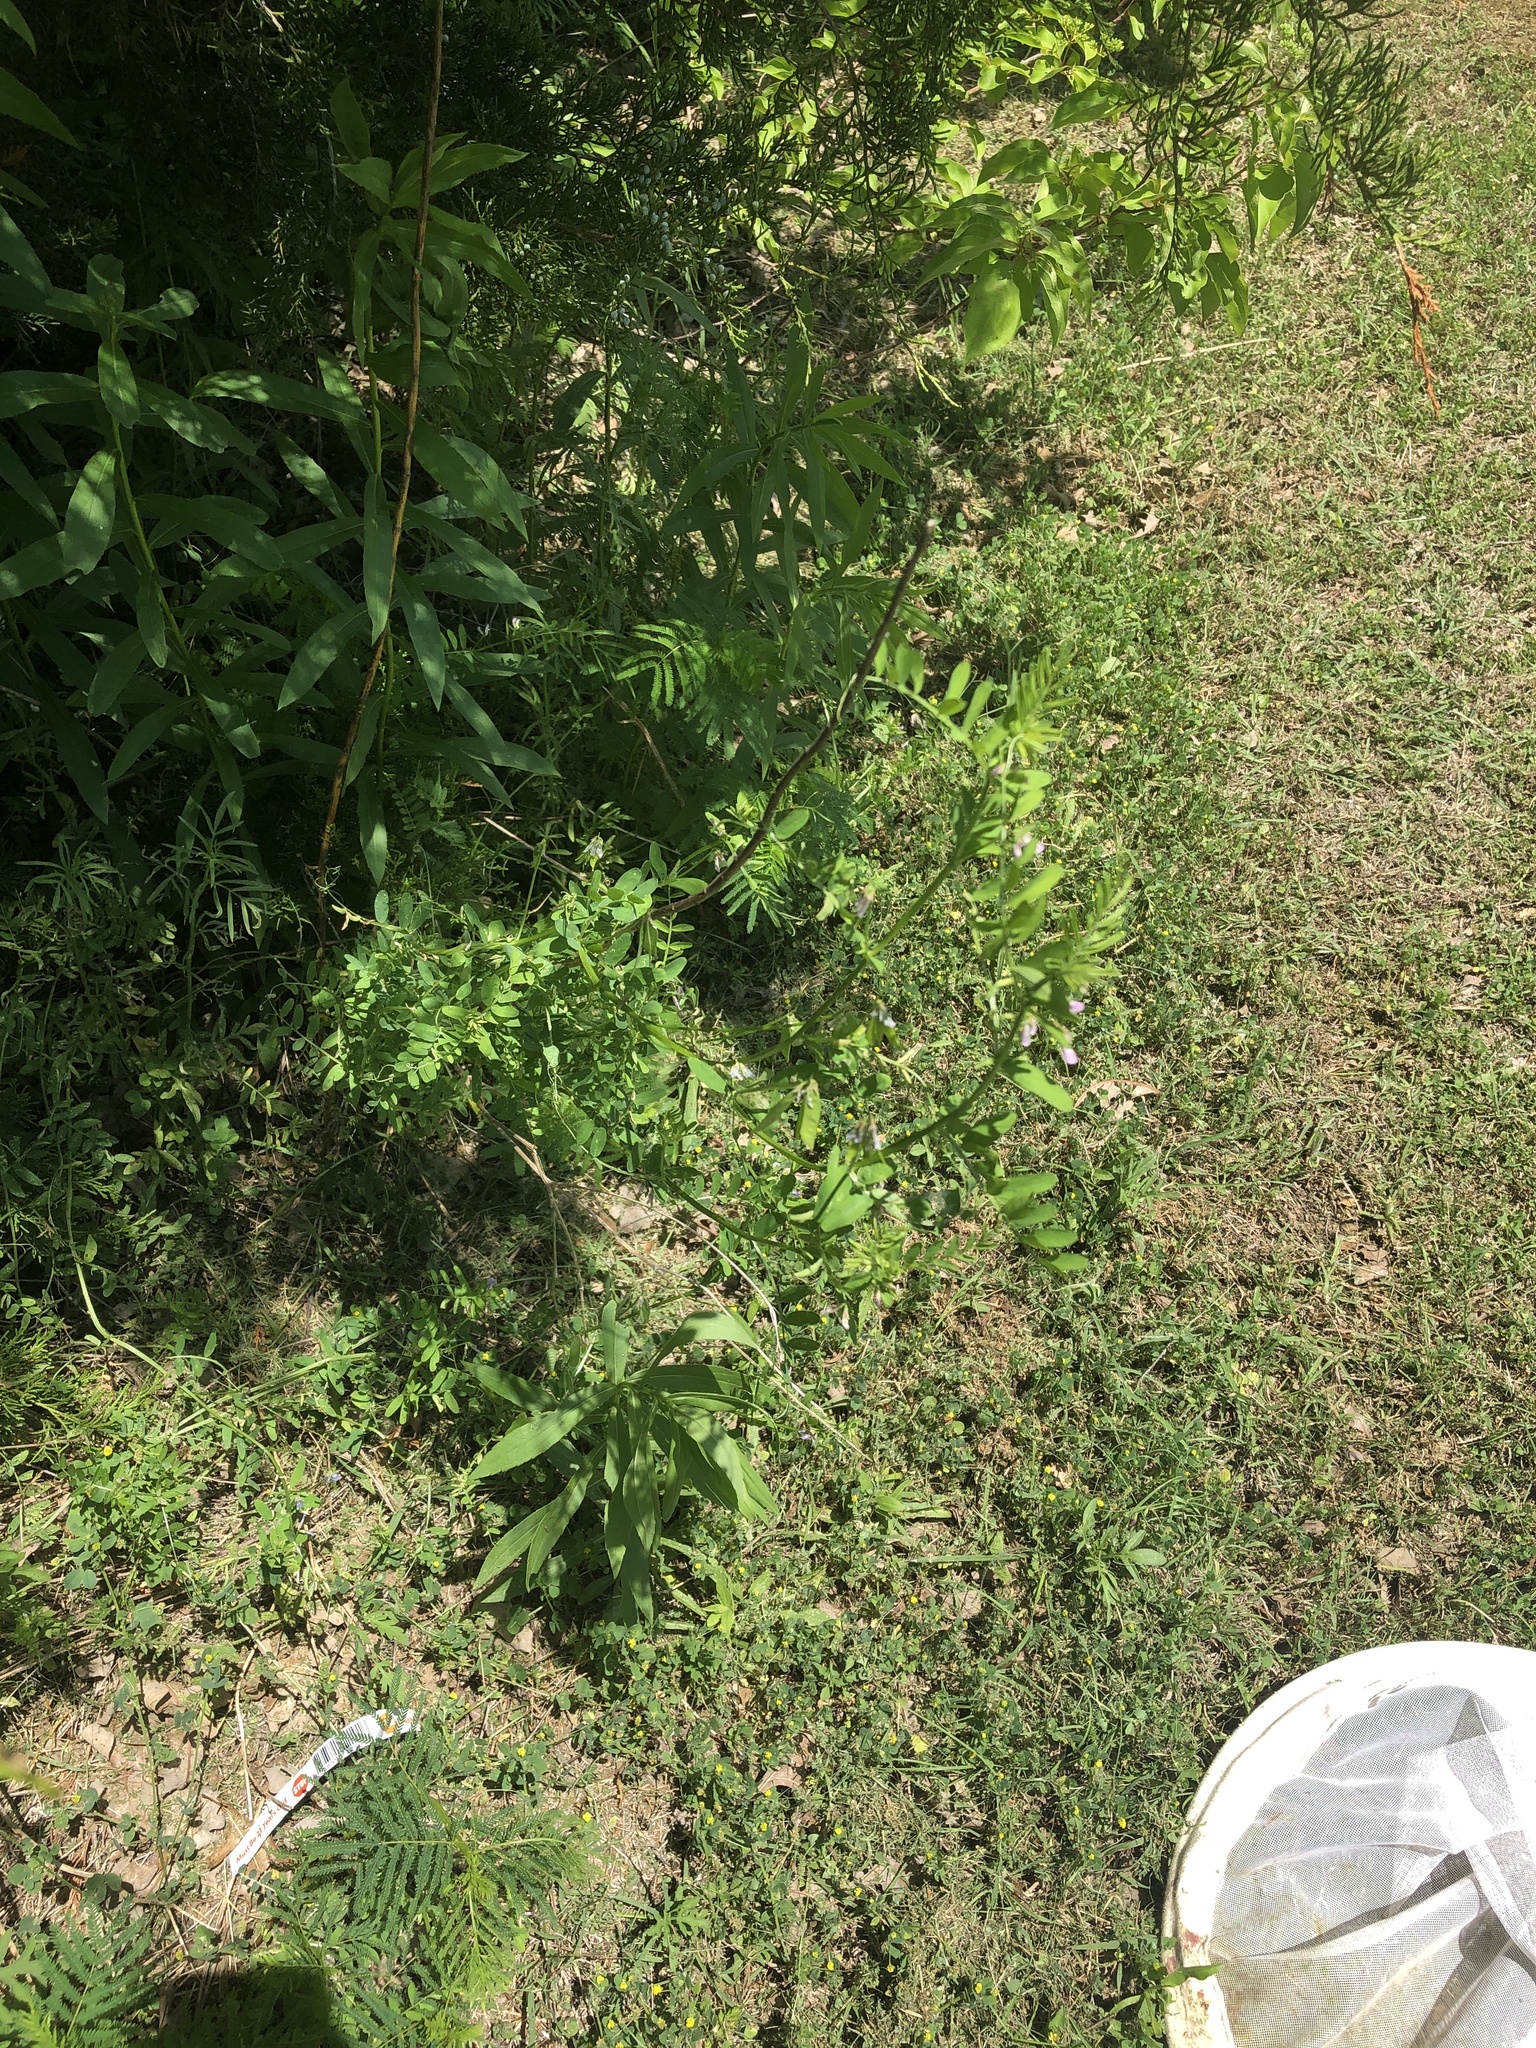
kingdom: Plantae
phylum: Tracheophyta
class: Magnoliopsida
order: Fabales
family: Fabaceae
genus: Vicia
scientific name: Vicia ludoviciana
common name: Louisiana vetch
